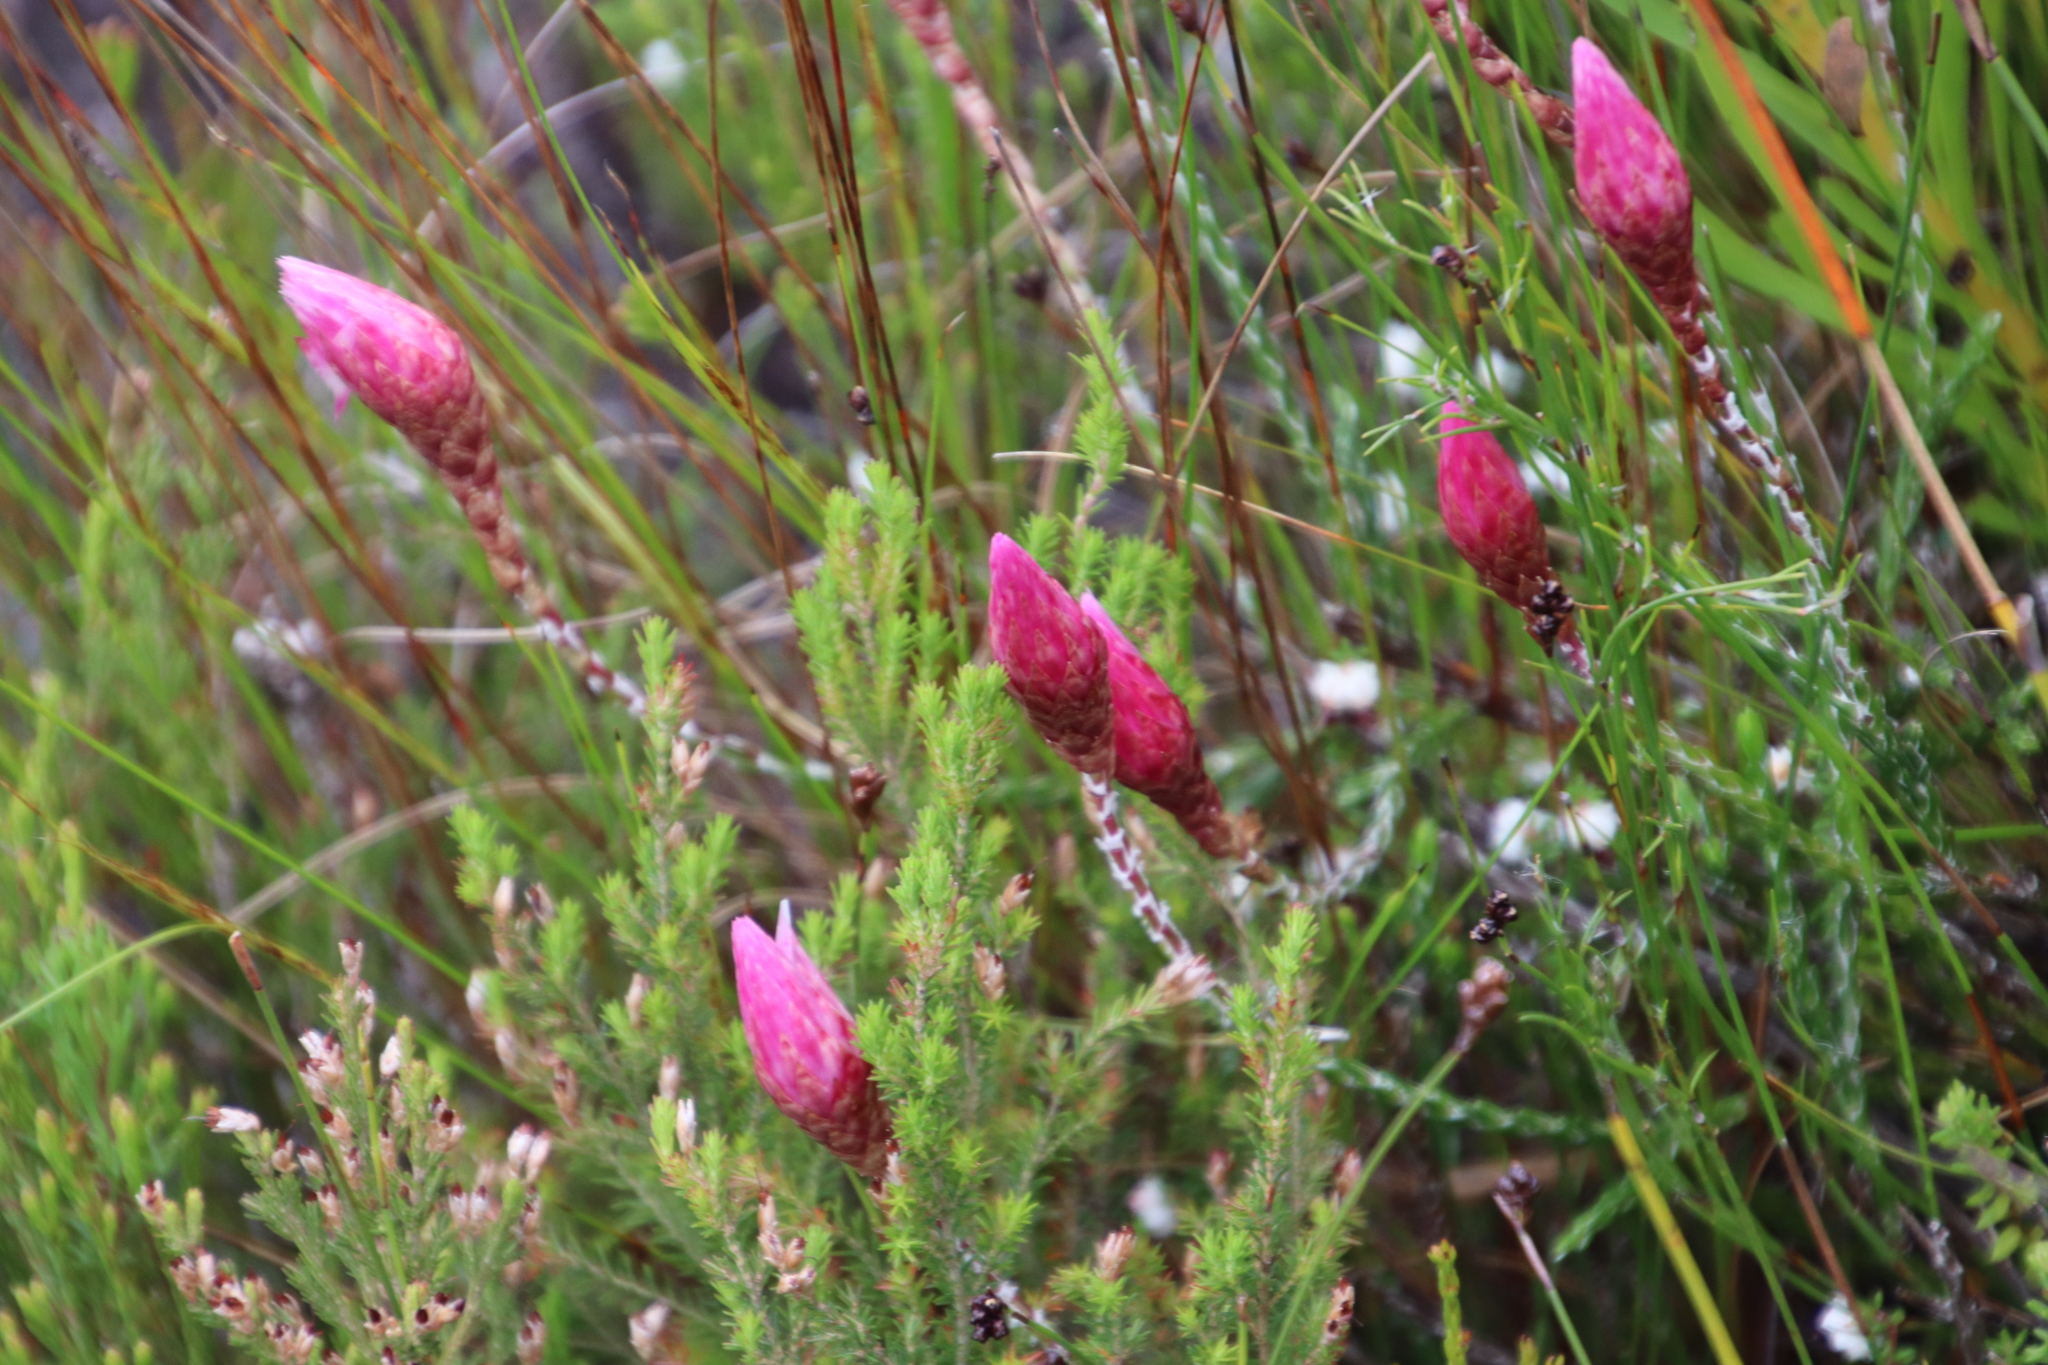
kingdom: Plantae
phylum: Tracheophyta
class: Magnoliopsida
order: Asterales
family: Asteraceae
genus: Edmondia
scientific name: Edmondia pinifolia
